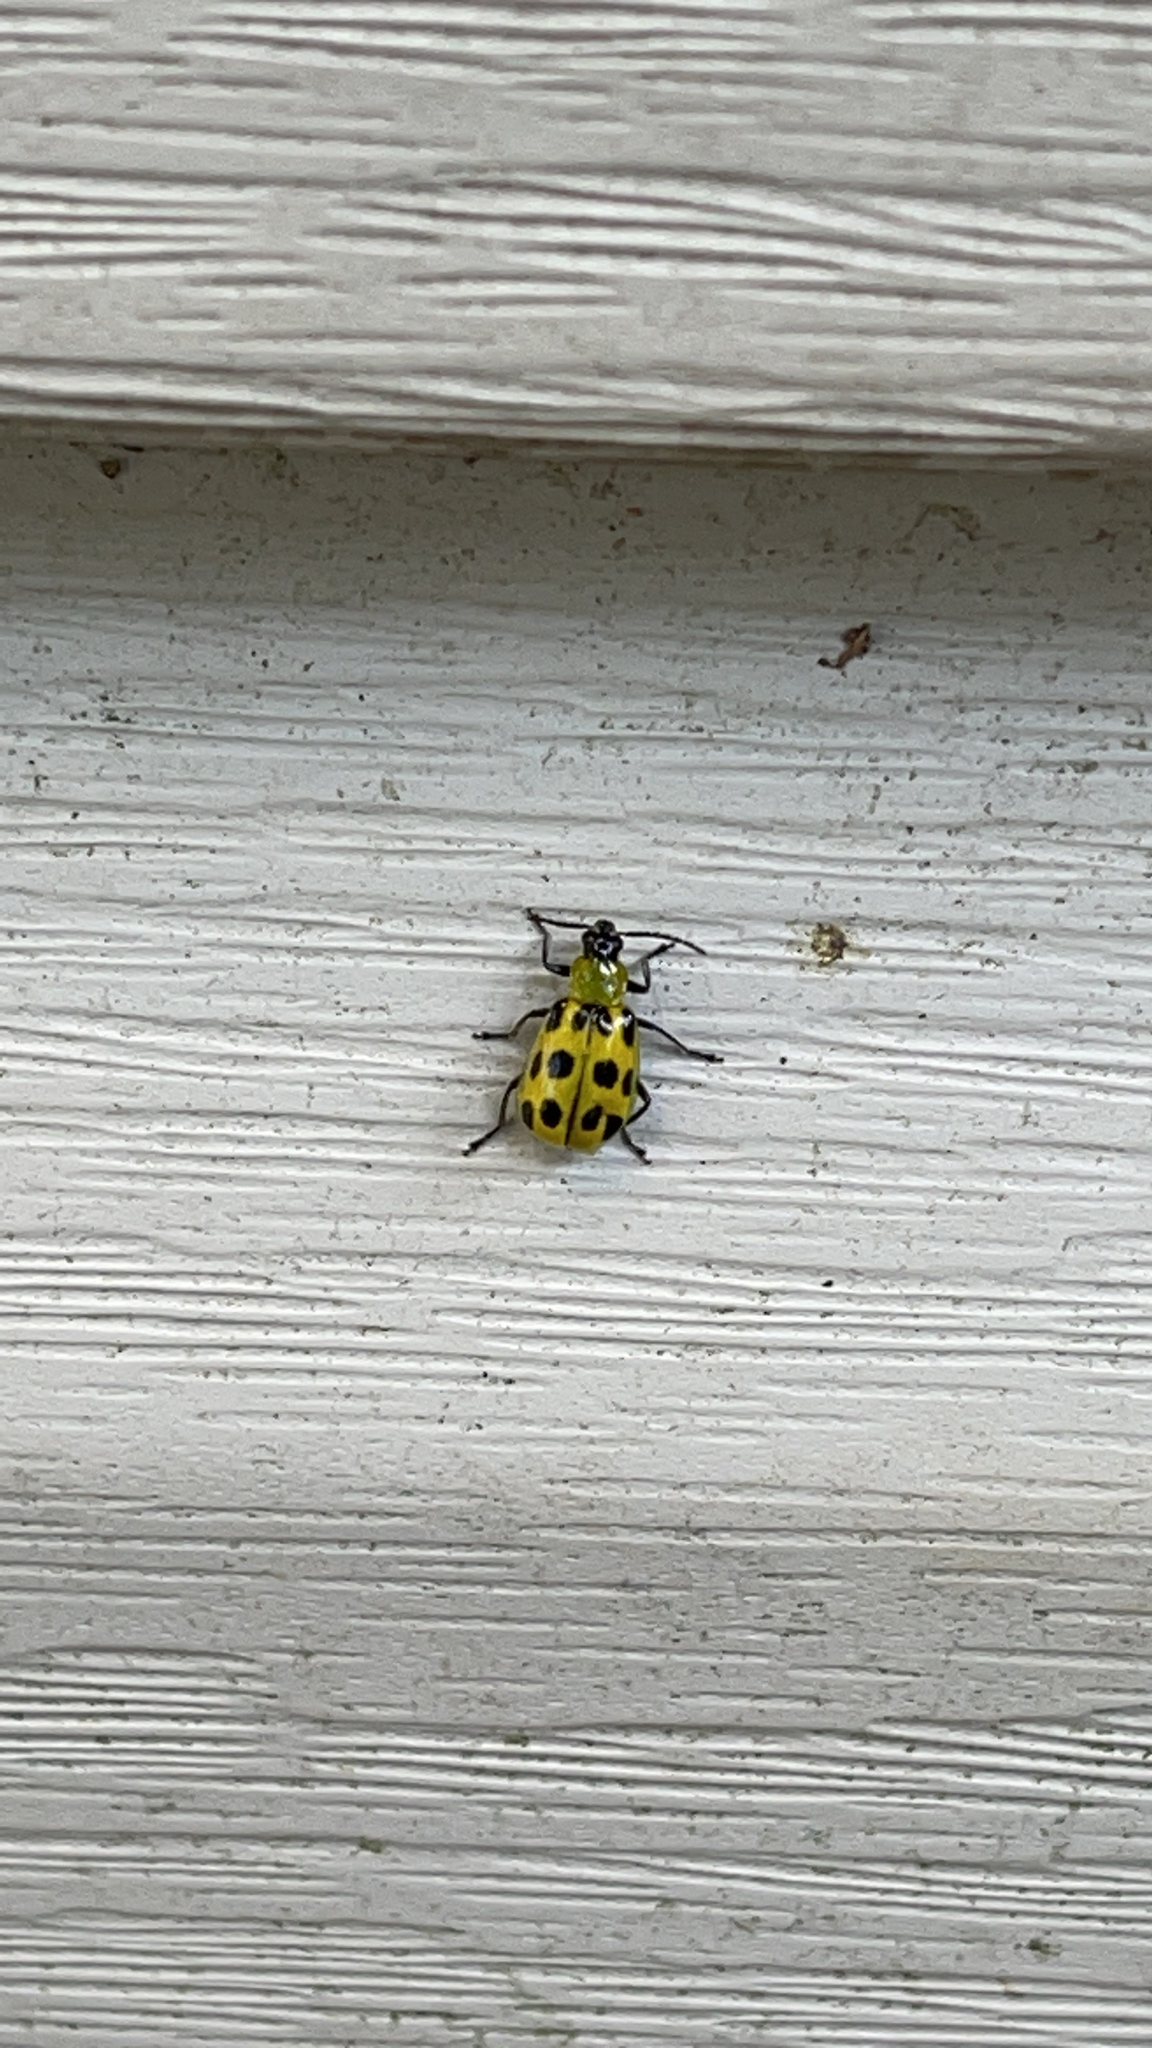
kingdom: Animalia
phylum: Arthropoda
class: Insecta
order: Coleoptera
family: Chrysomelidae
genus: Diabrotica
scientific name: Diabrotica undecimpunctata
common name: Spotted cucumber beetle
